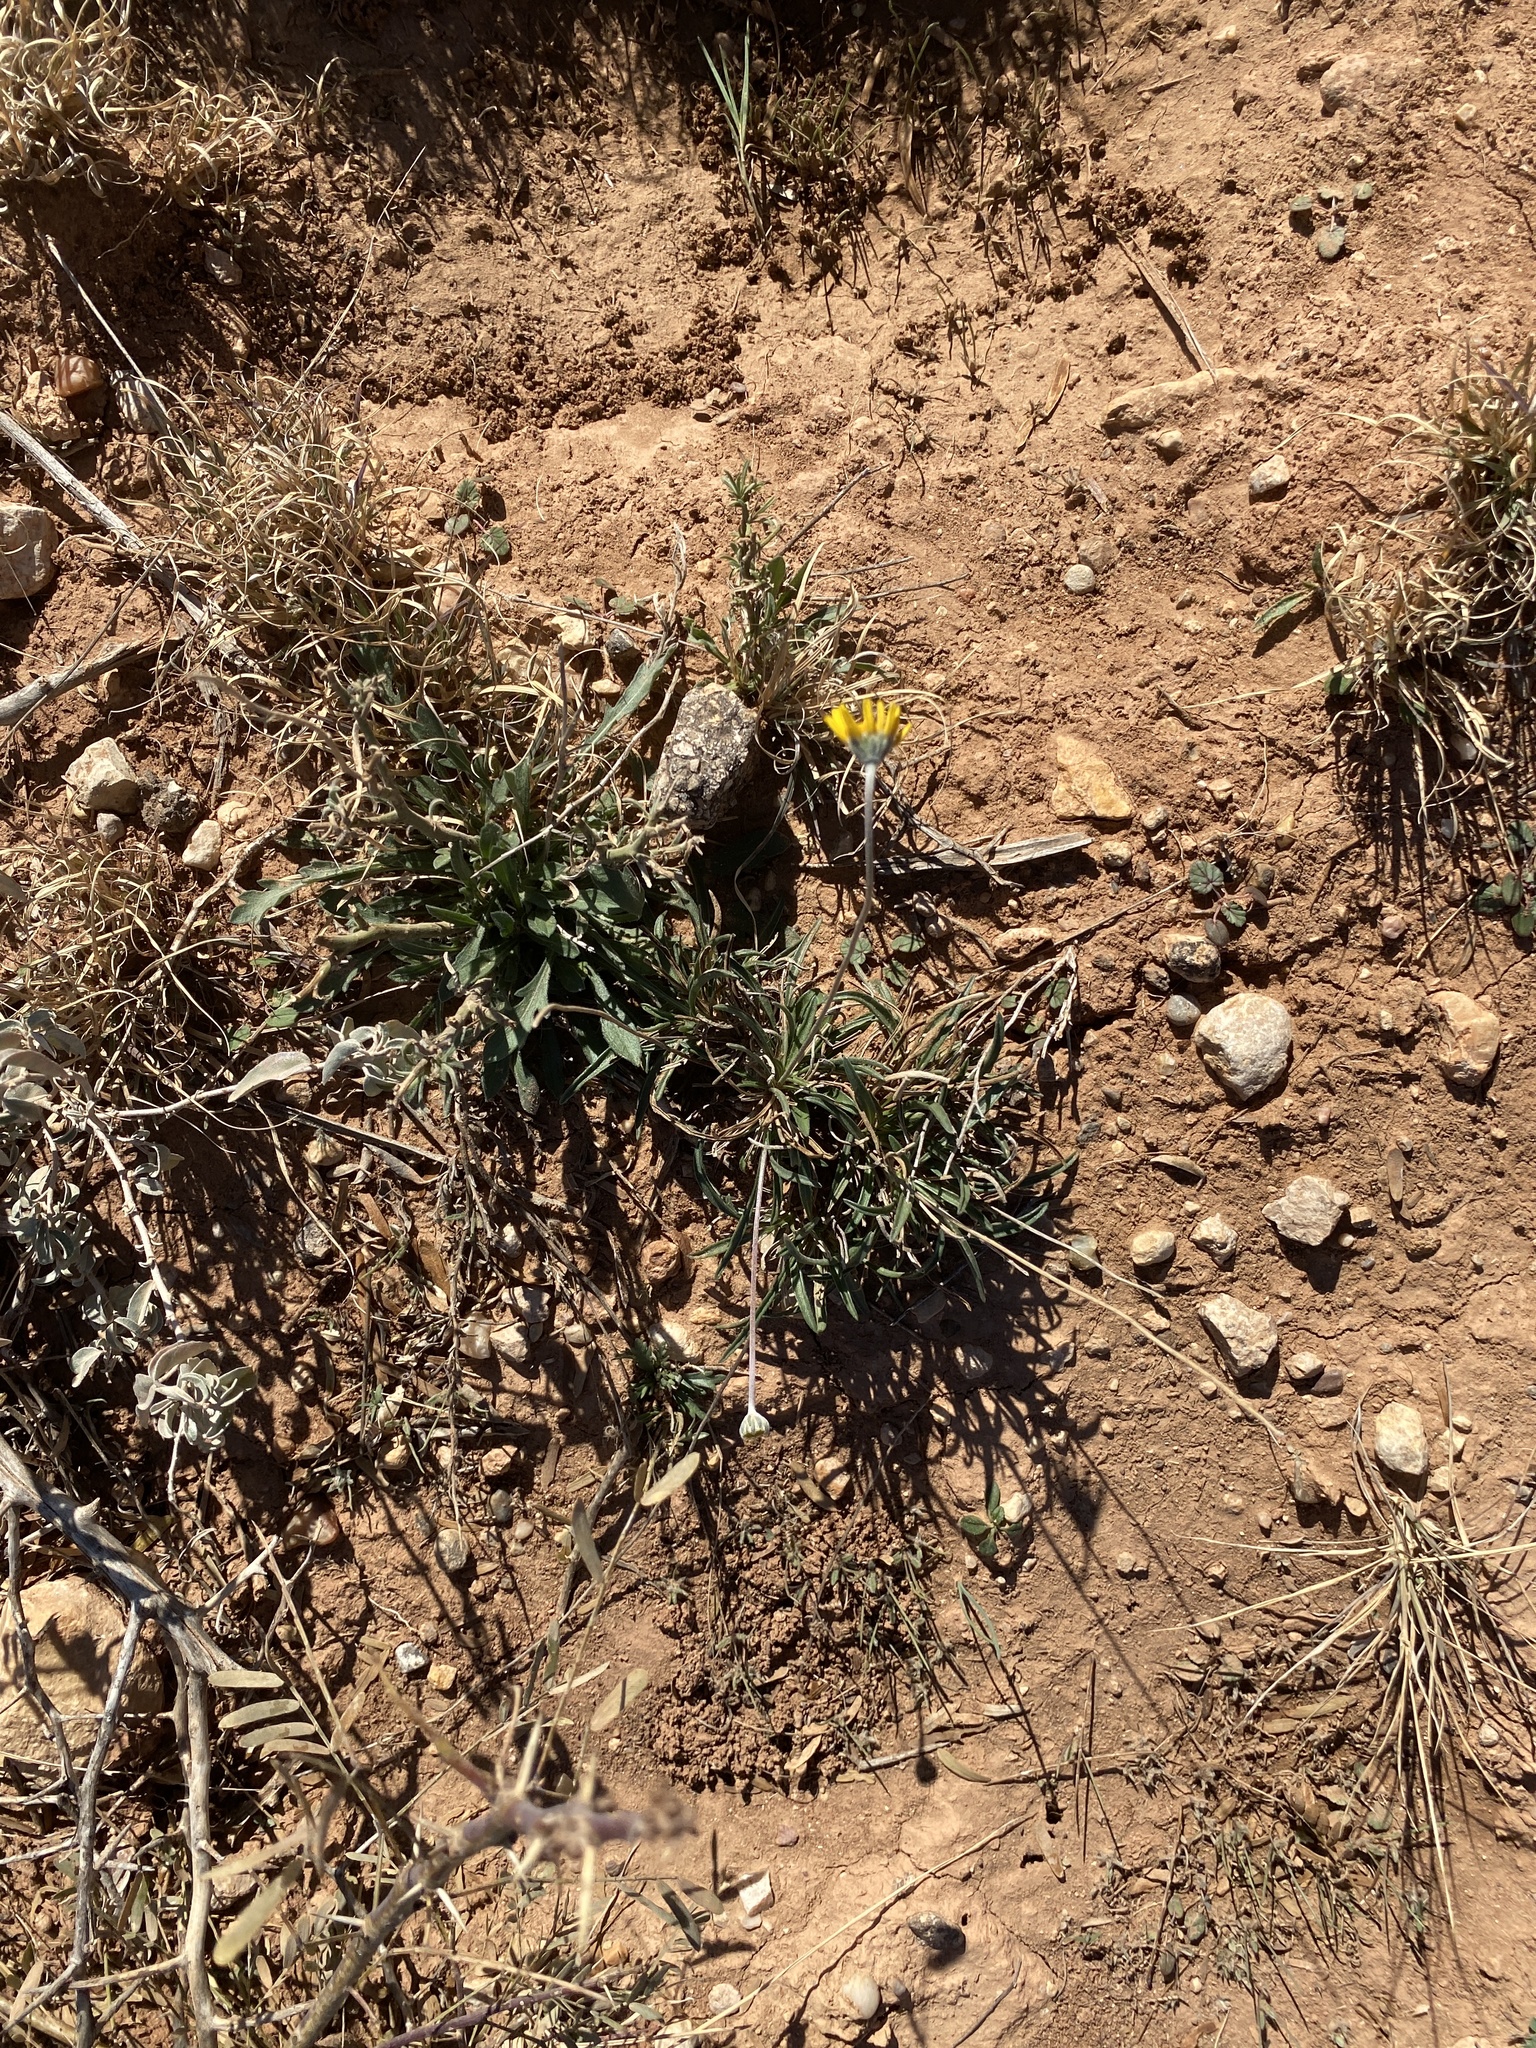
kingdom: Plantae
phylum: Tracheophyta
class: Magnoliopsida
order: Asterales
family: Asteraceae
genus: Tetraneuris
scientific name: Tetraneuris scaposa
